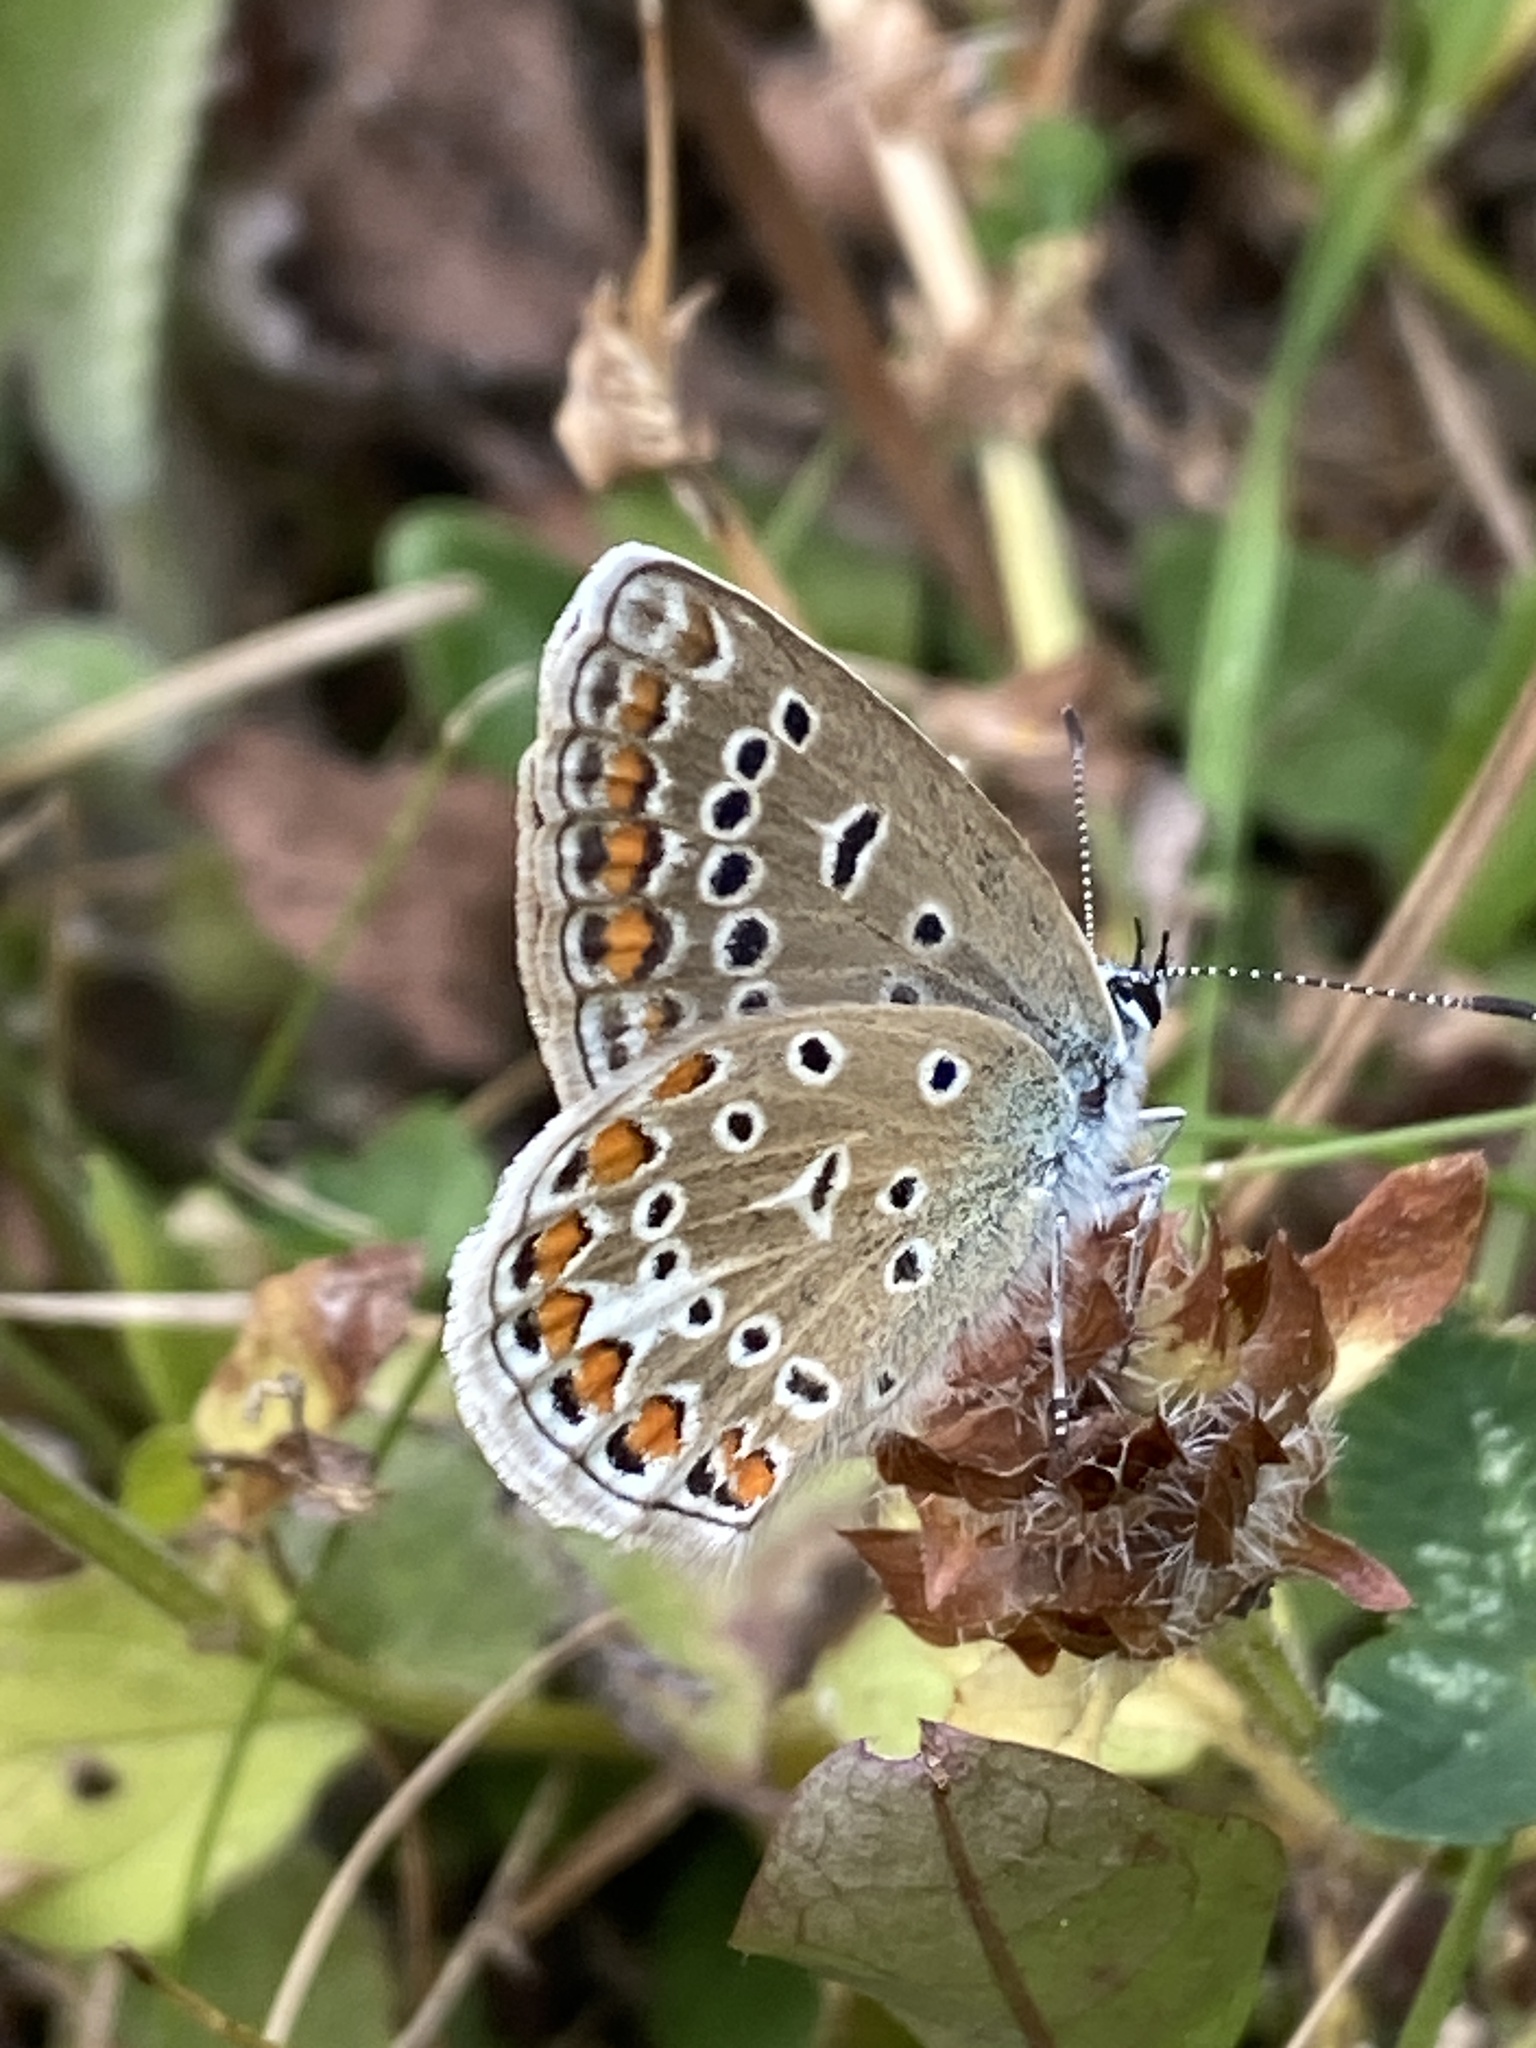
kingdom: Animalia
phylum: Arthropoda
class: Insecta
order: Lepidoptera
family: Lycaenidae
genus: Polyommatus
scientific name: Polyommatus icarus
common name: Common blue
